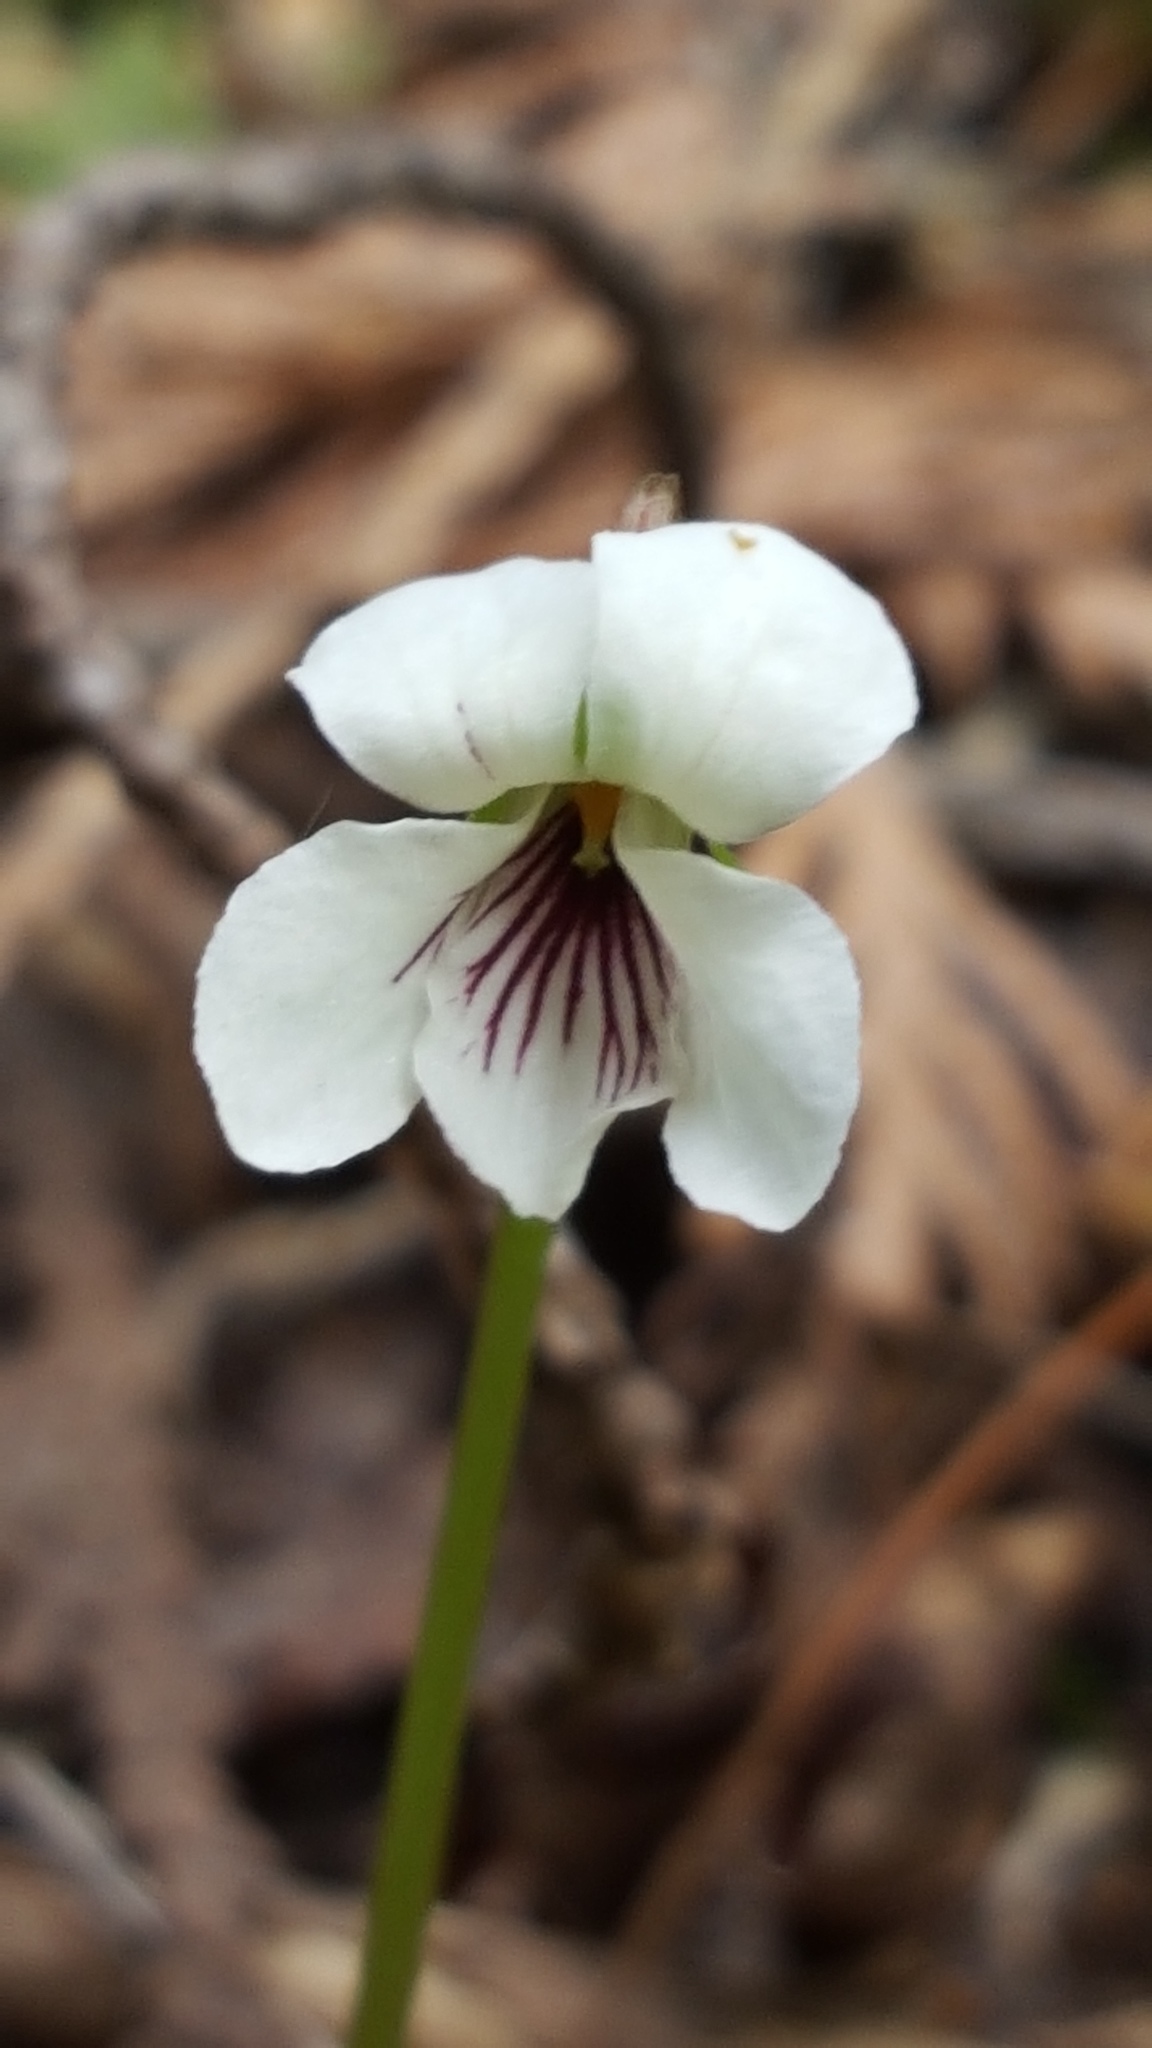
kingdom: Plantae
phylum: Tracheophyta
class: Magnoliopsida
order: Malpighiales
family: Violaceae
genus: Viola
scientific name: Viola renifolia
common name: Kidney-leaf violet
